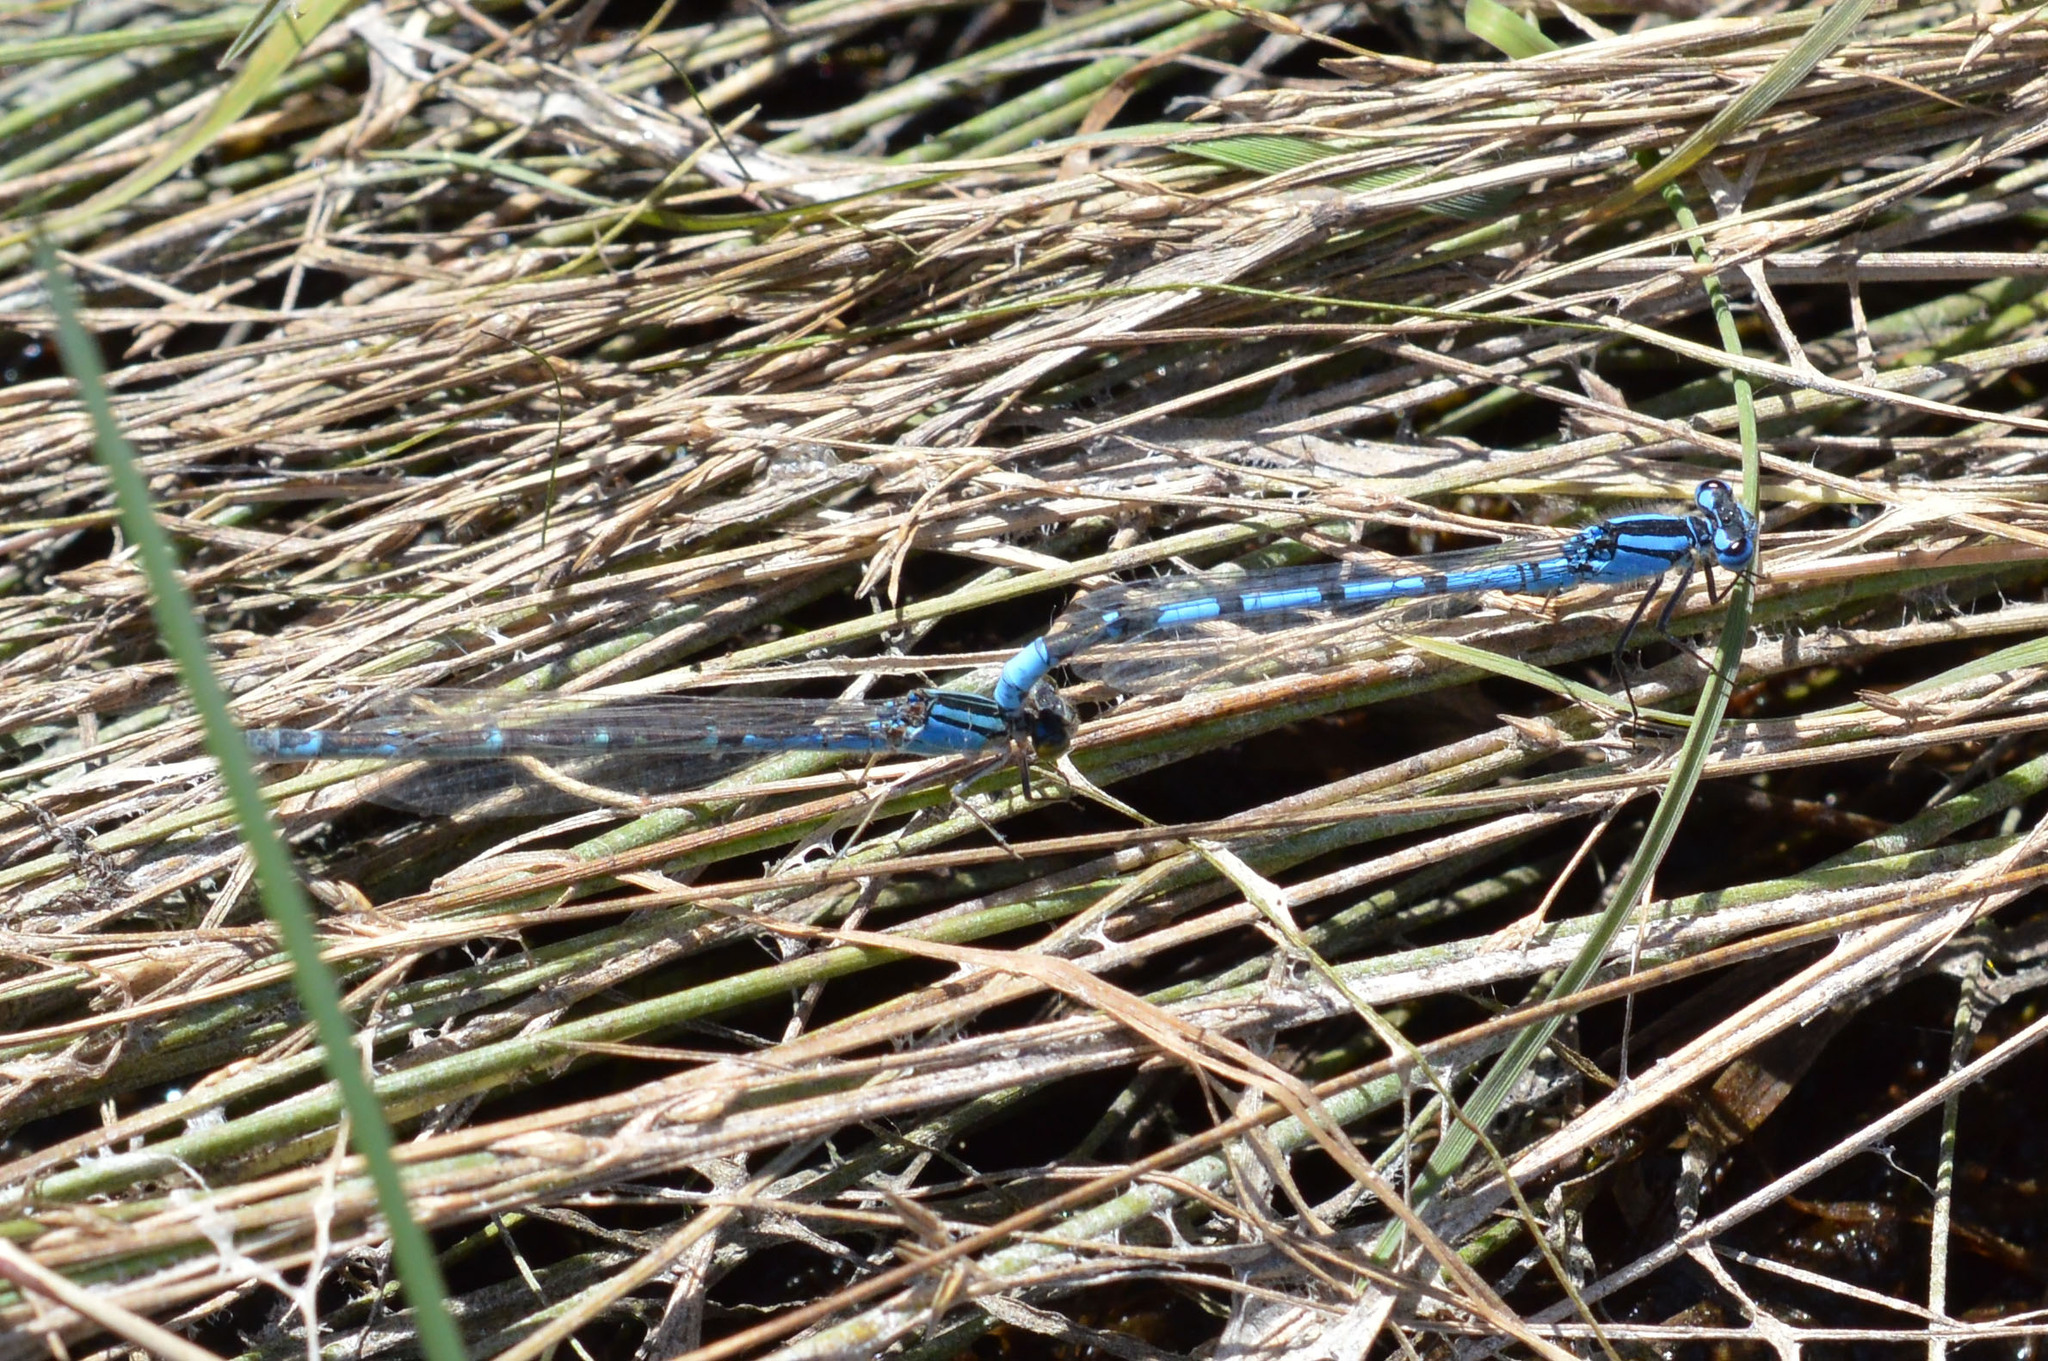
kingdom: Animalia
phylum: Arthropoda
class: Insecta
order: Odonata
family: Coenagrionidae
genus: Enallagma
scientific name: Enallagma cyathigerum
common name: Common blue damselfly
